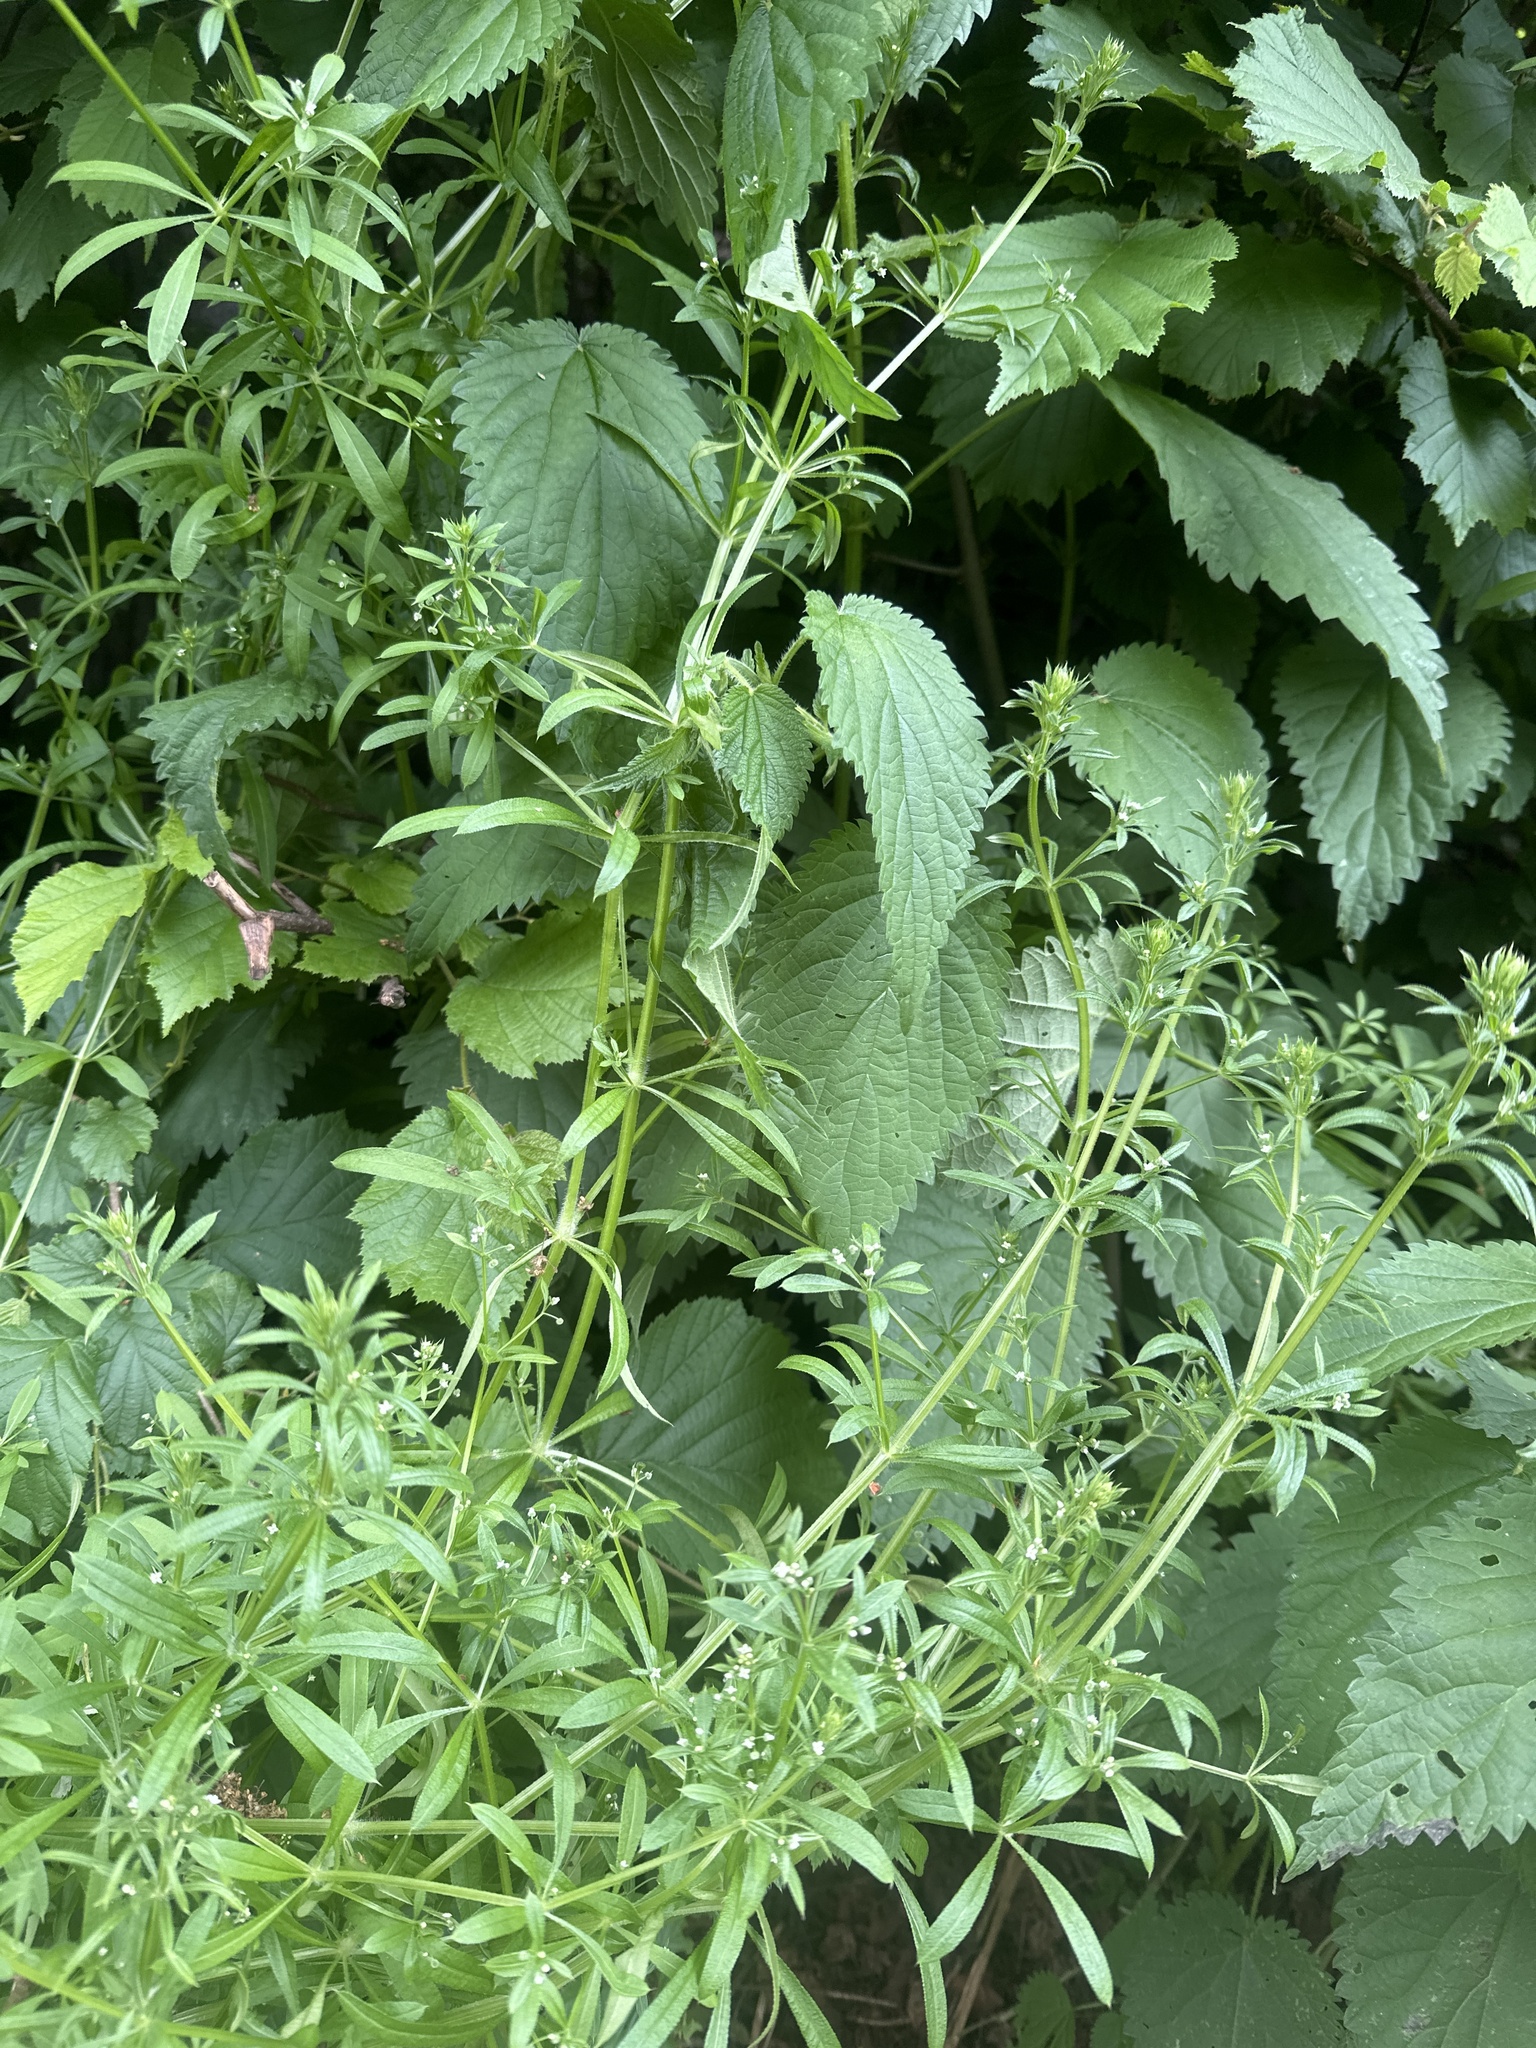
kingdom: Plantae
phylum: Tracheophyta
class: Magnoliopsida
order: Gentianales
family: Rubiaceae
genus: Galium
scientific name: Galium aparine
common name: Cleavers
